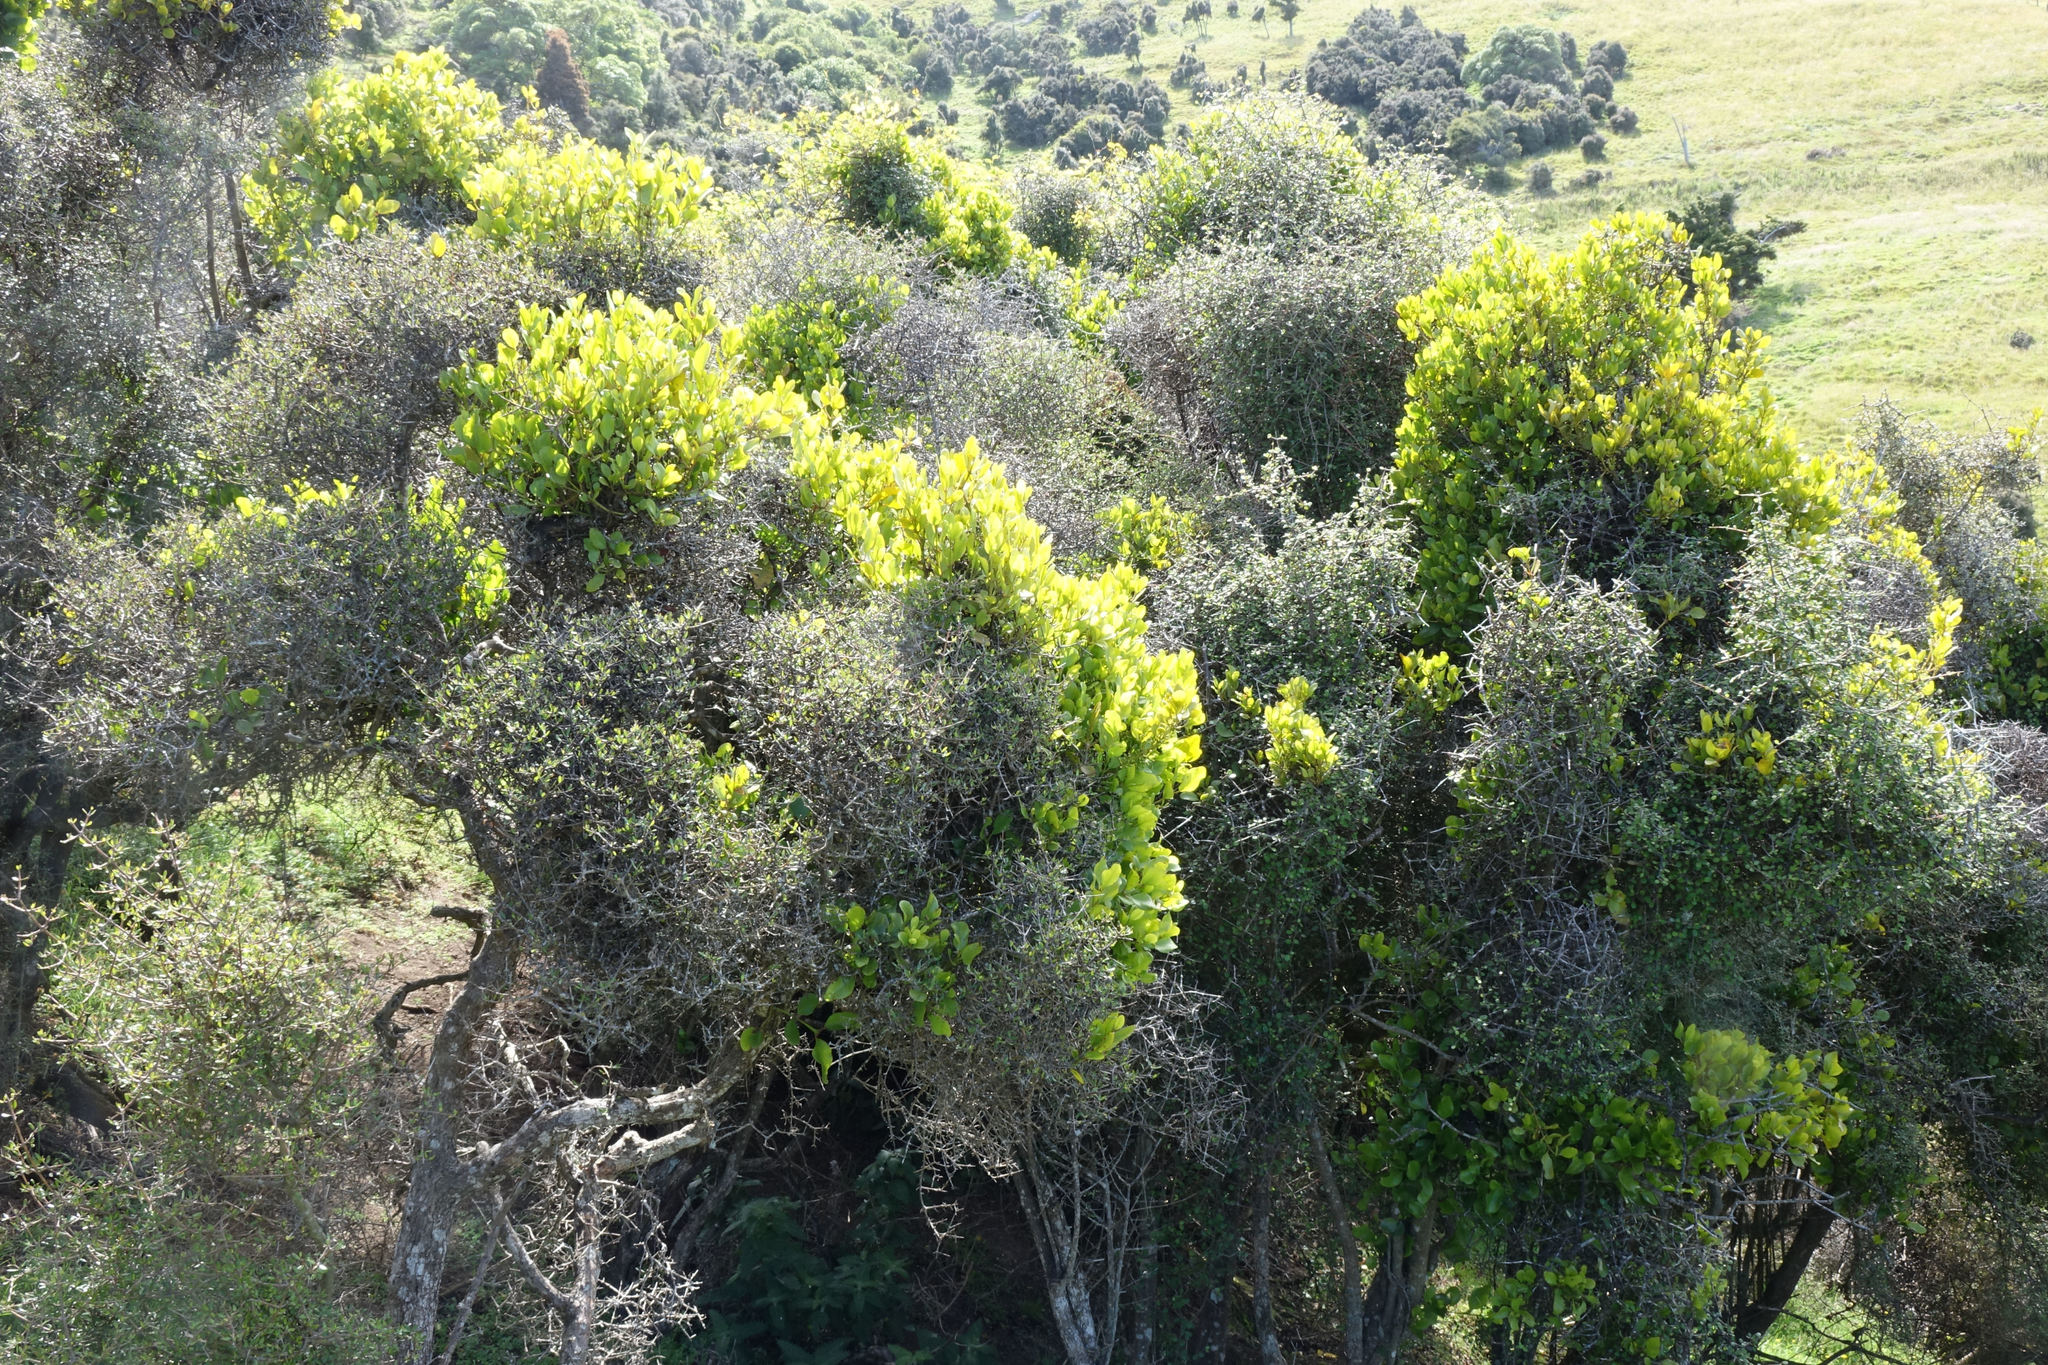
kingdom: Plantae
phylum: Tracheophyta
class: Magnoliopsida
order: Santalales
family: Loranthaceae
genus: Ileostylus
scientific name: Ileostylus micranthus
